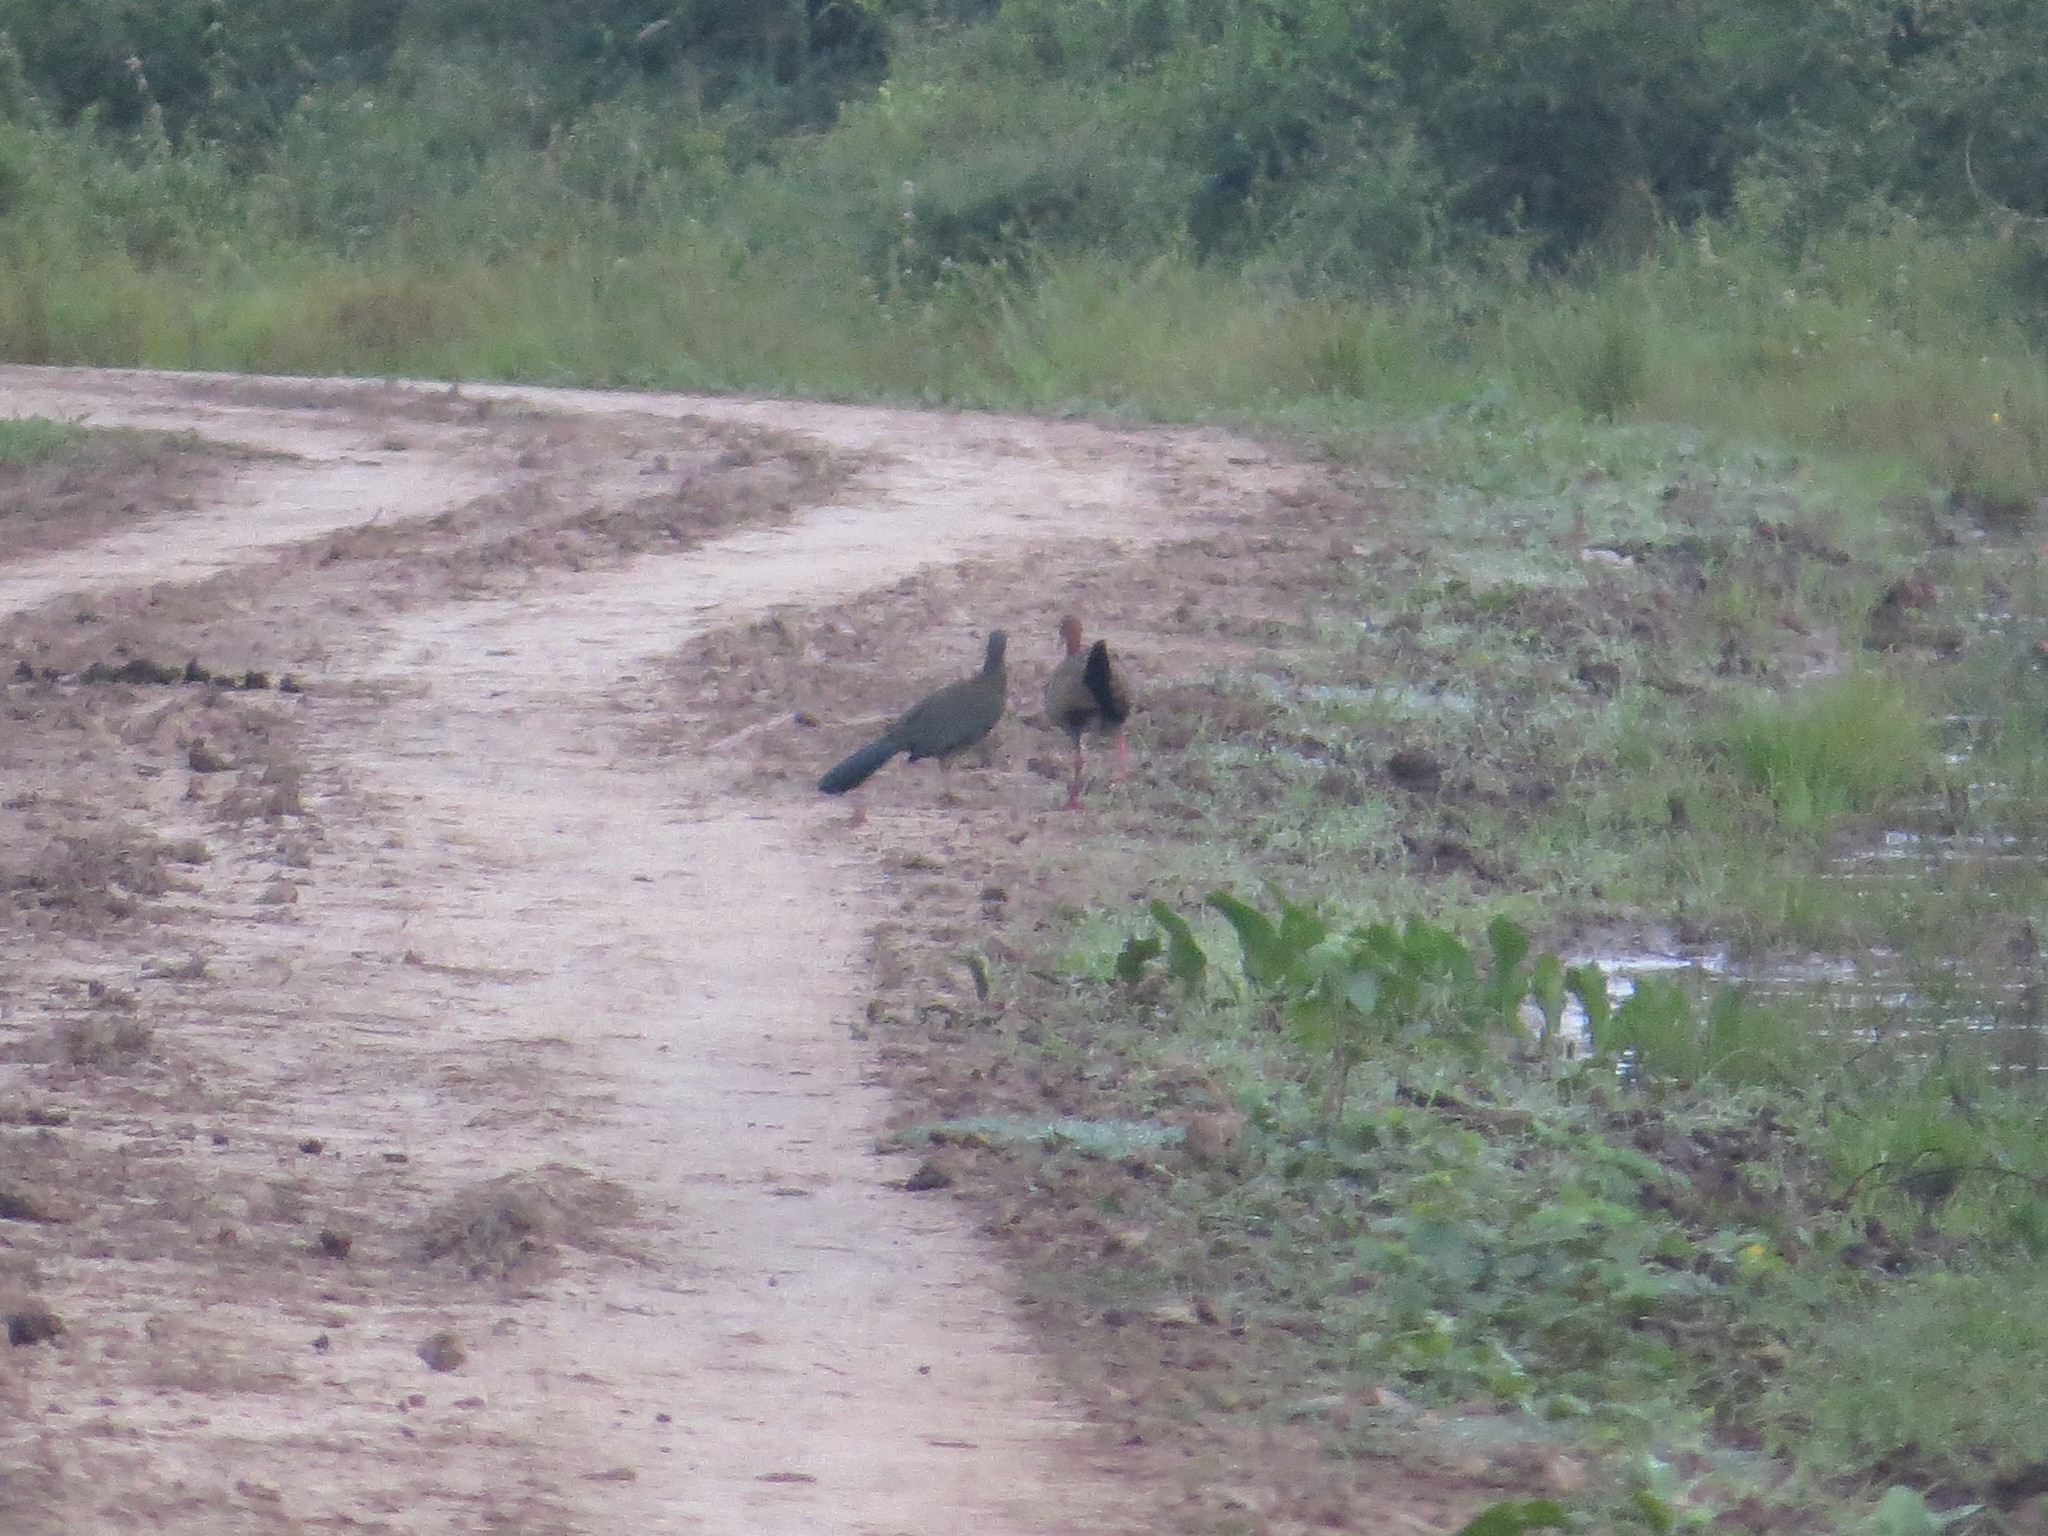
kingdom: Animalia
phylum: Chordata
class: Aves
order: Galliformes
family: Cracidae
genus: Ortalis
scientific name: Ortalis canicollis
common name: Chaco chachalaca
